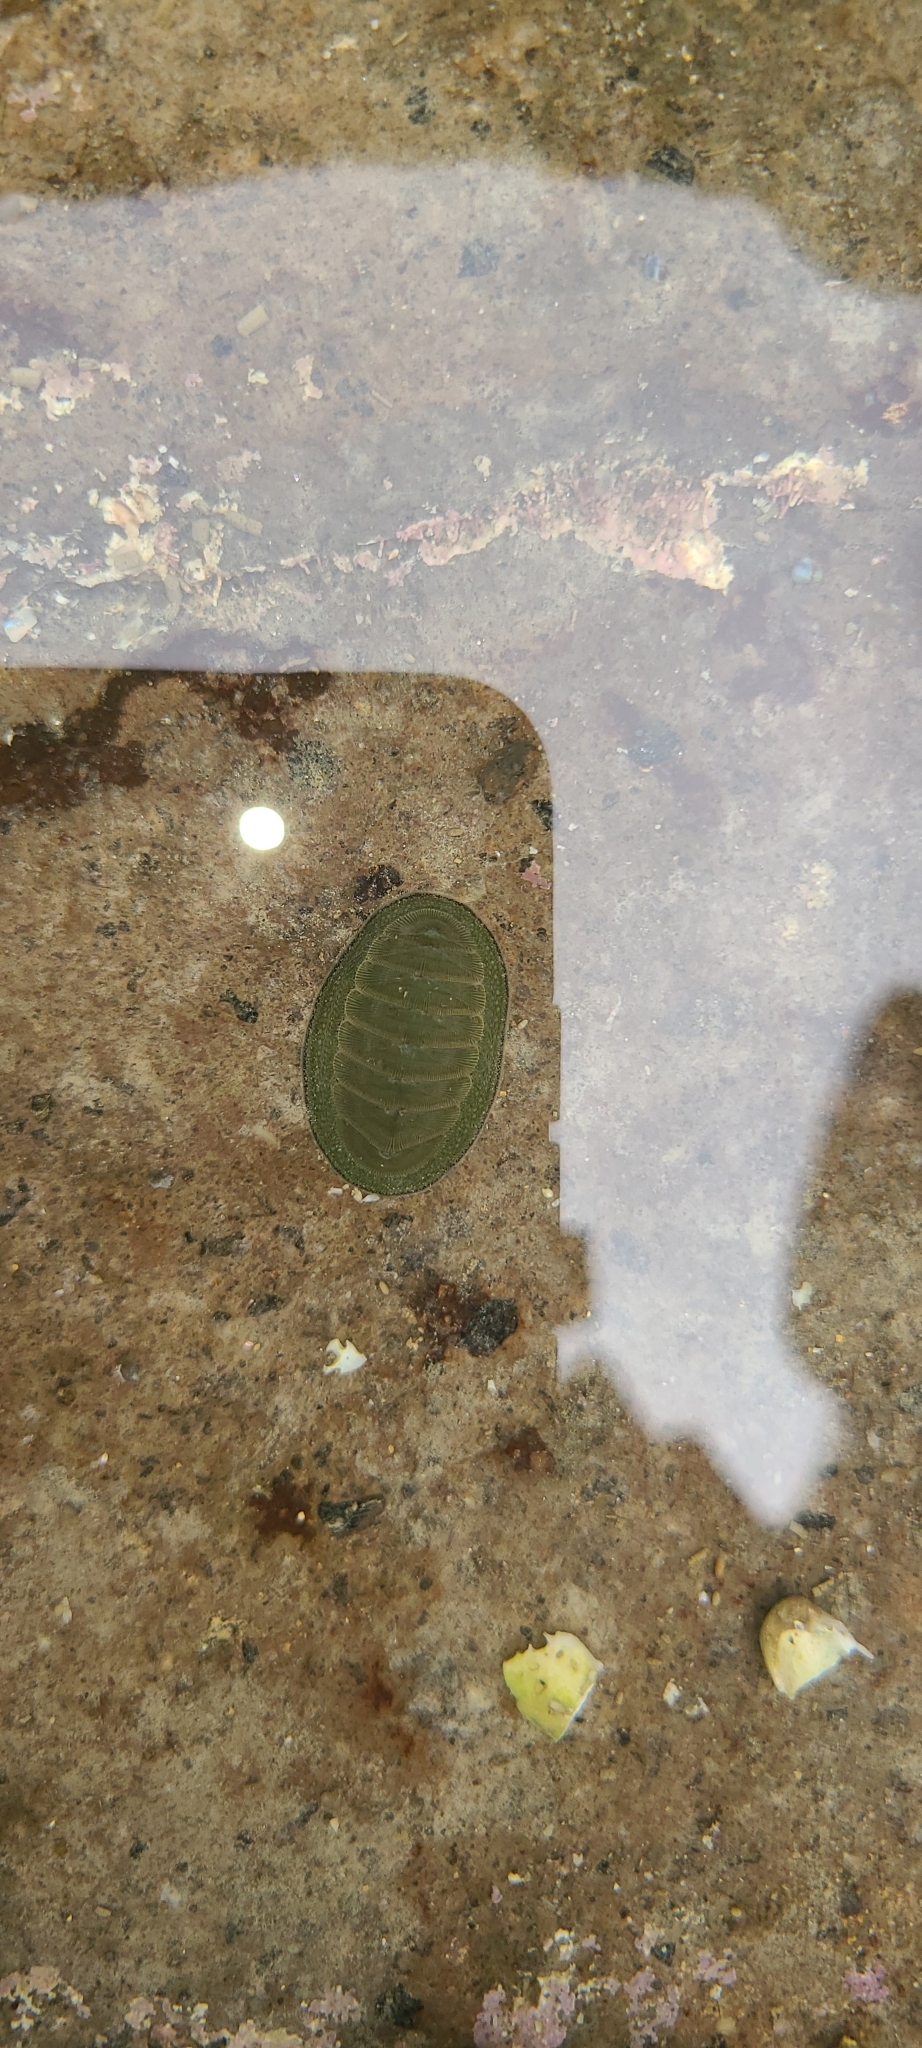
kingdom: Animalia
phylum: Mollusca
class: Polyplacophora
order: Chitonida
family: Chitonidae
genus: Chiton
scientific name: Chiton glaucus
